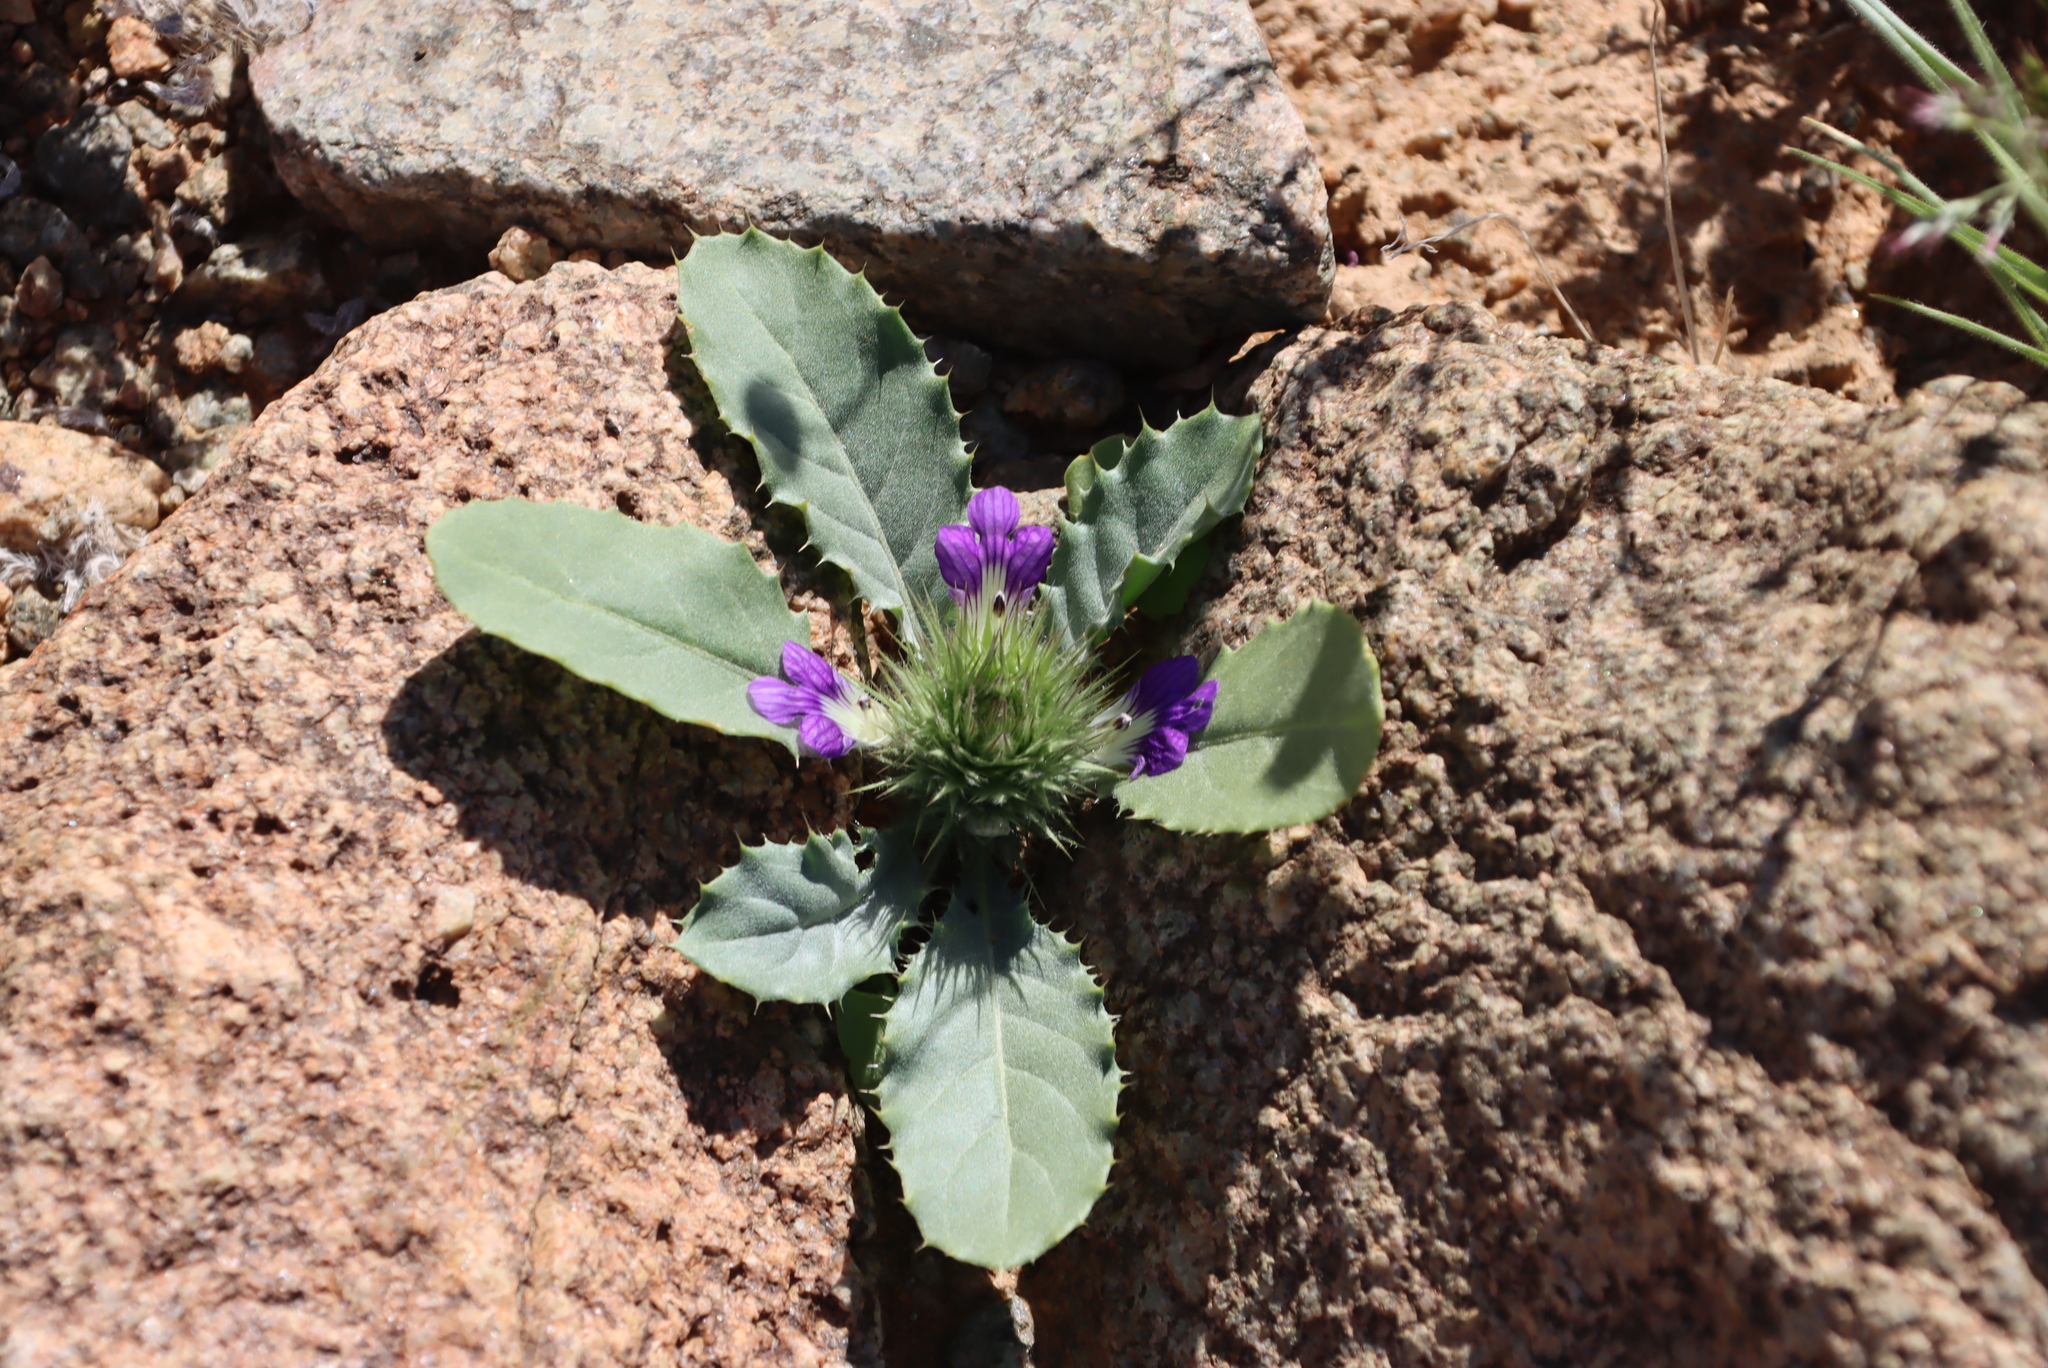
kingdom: Plantae
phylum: Tracheophyta
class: Magnoliopsida
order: Lamiales
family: Acanthaceae
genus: Acanthopsis
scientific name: Acanthopsis disperma
